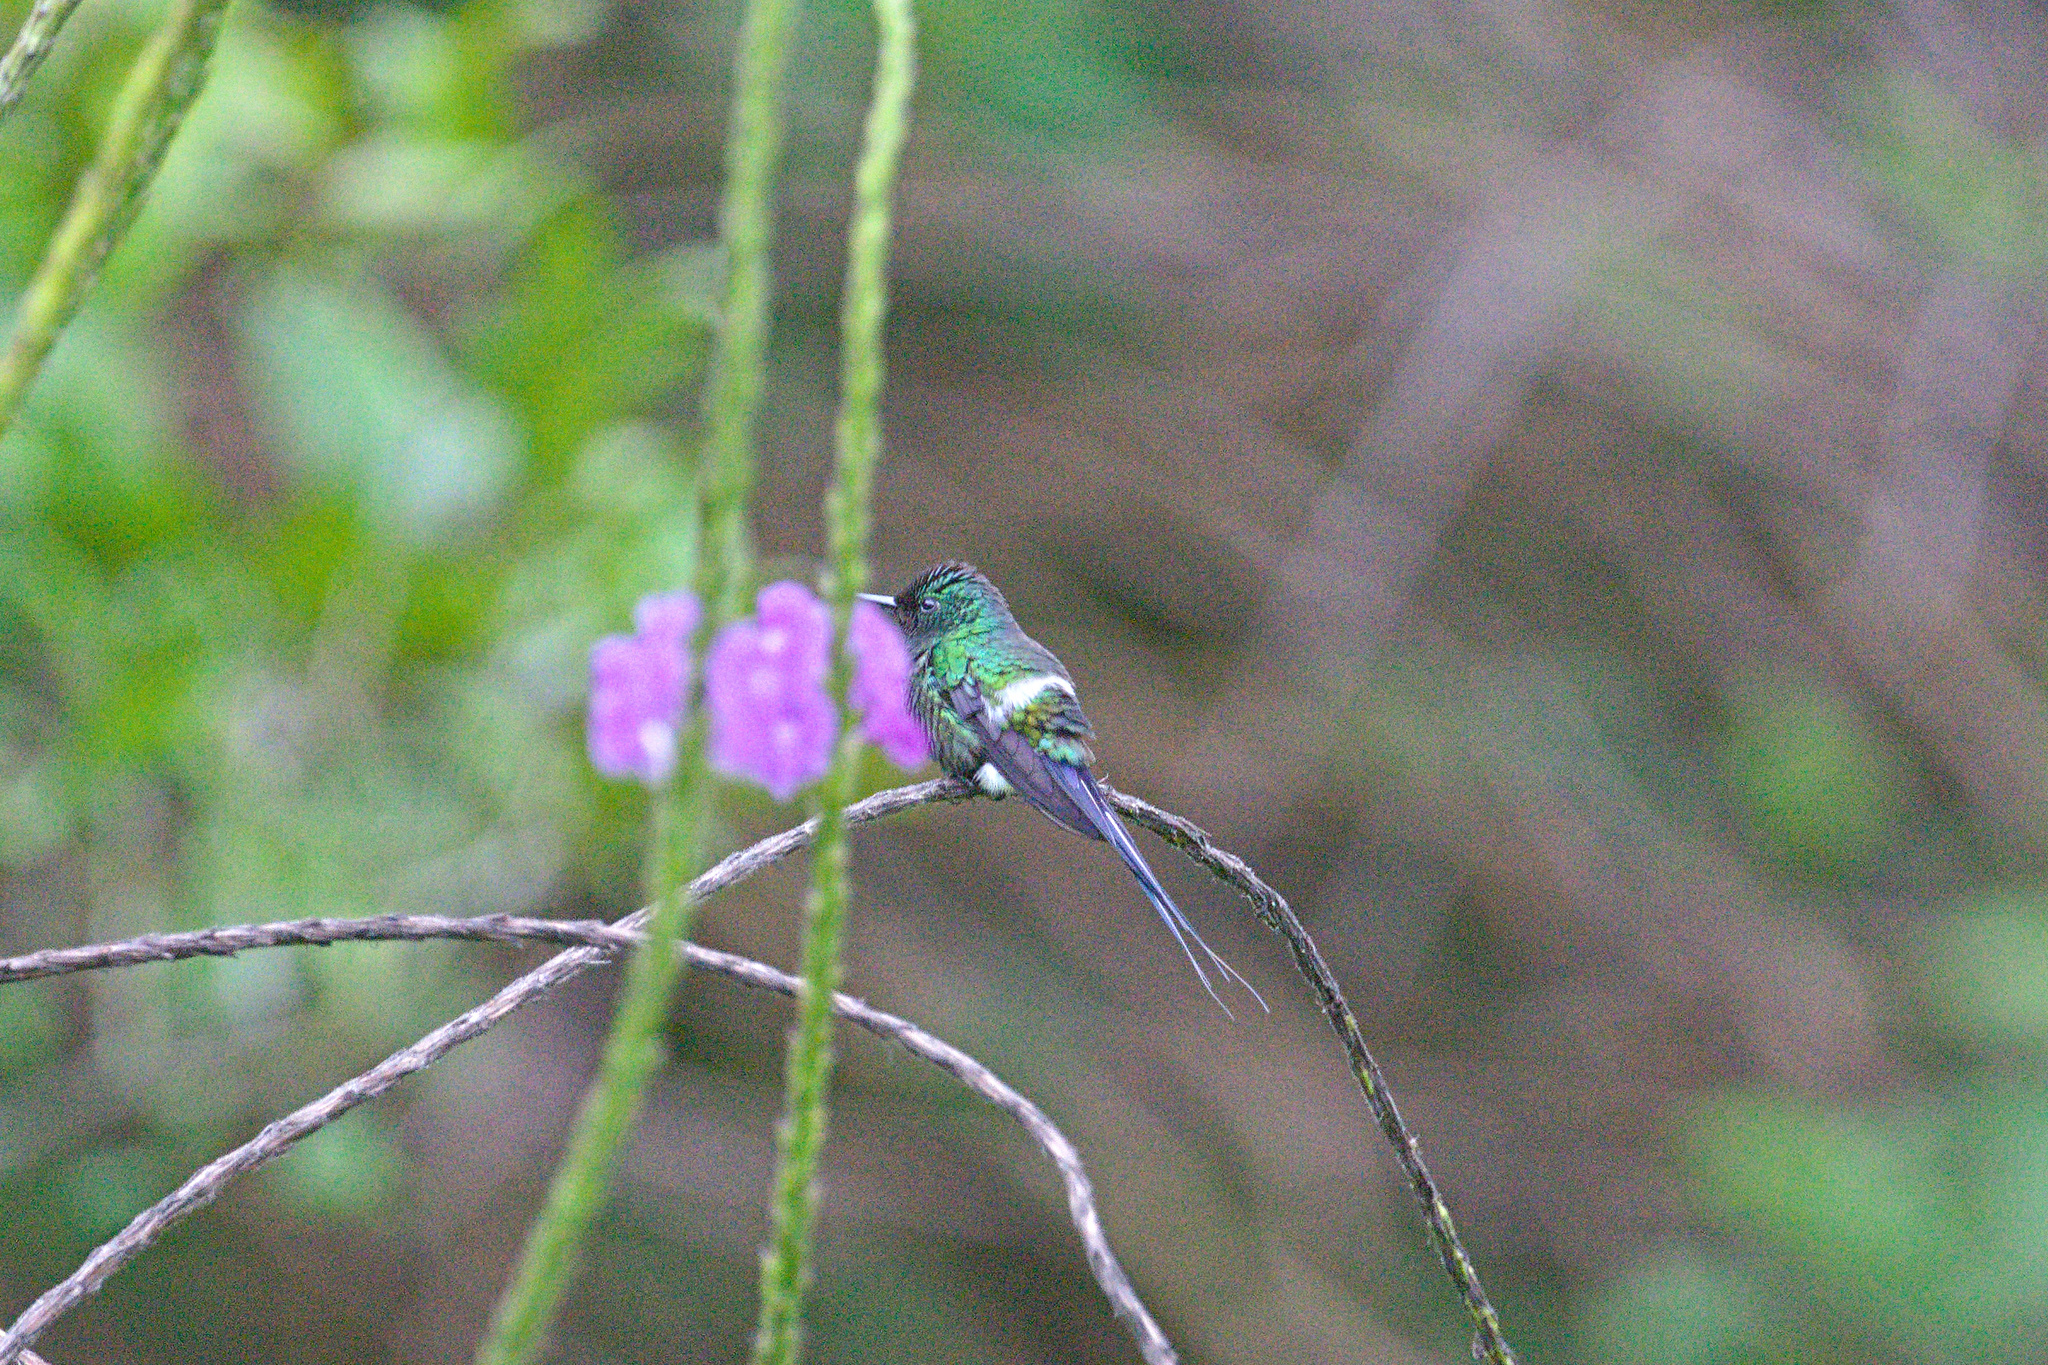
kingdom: Animalia
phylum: Chordata
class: Aves
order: Apodiformes
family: Trochilidae
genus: Discosura
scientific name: Discosura conversii
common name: Green thorntail
